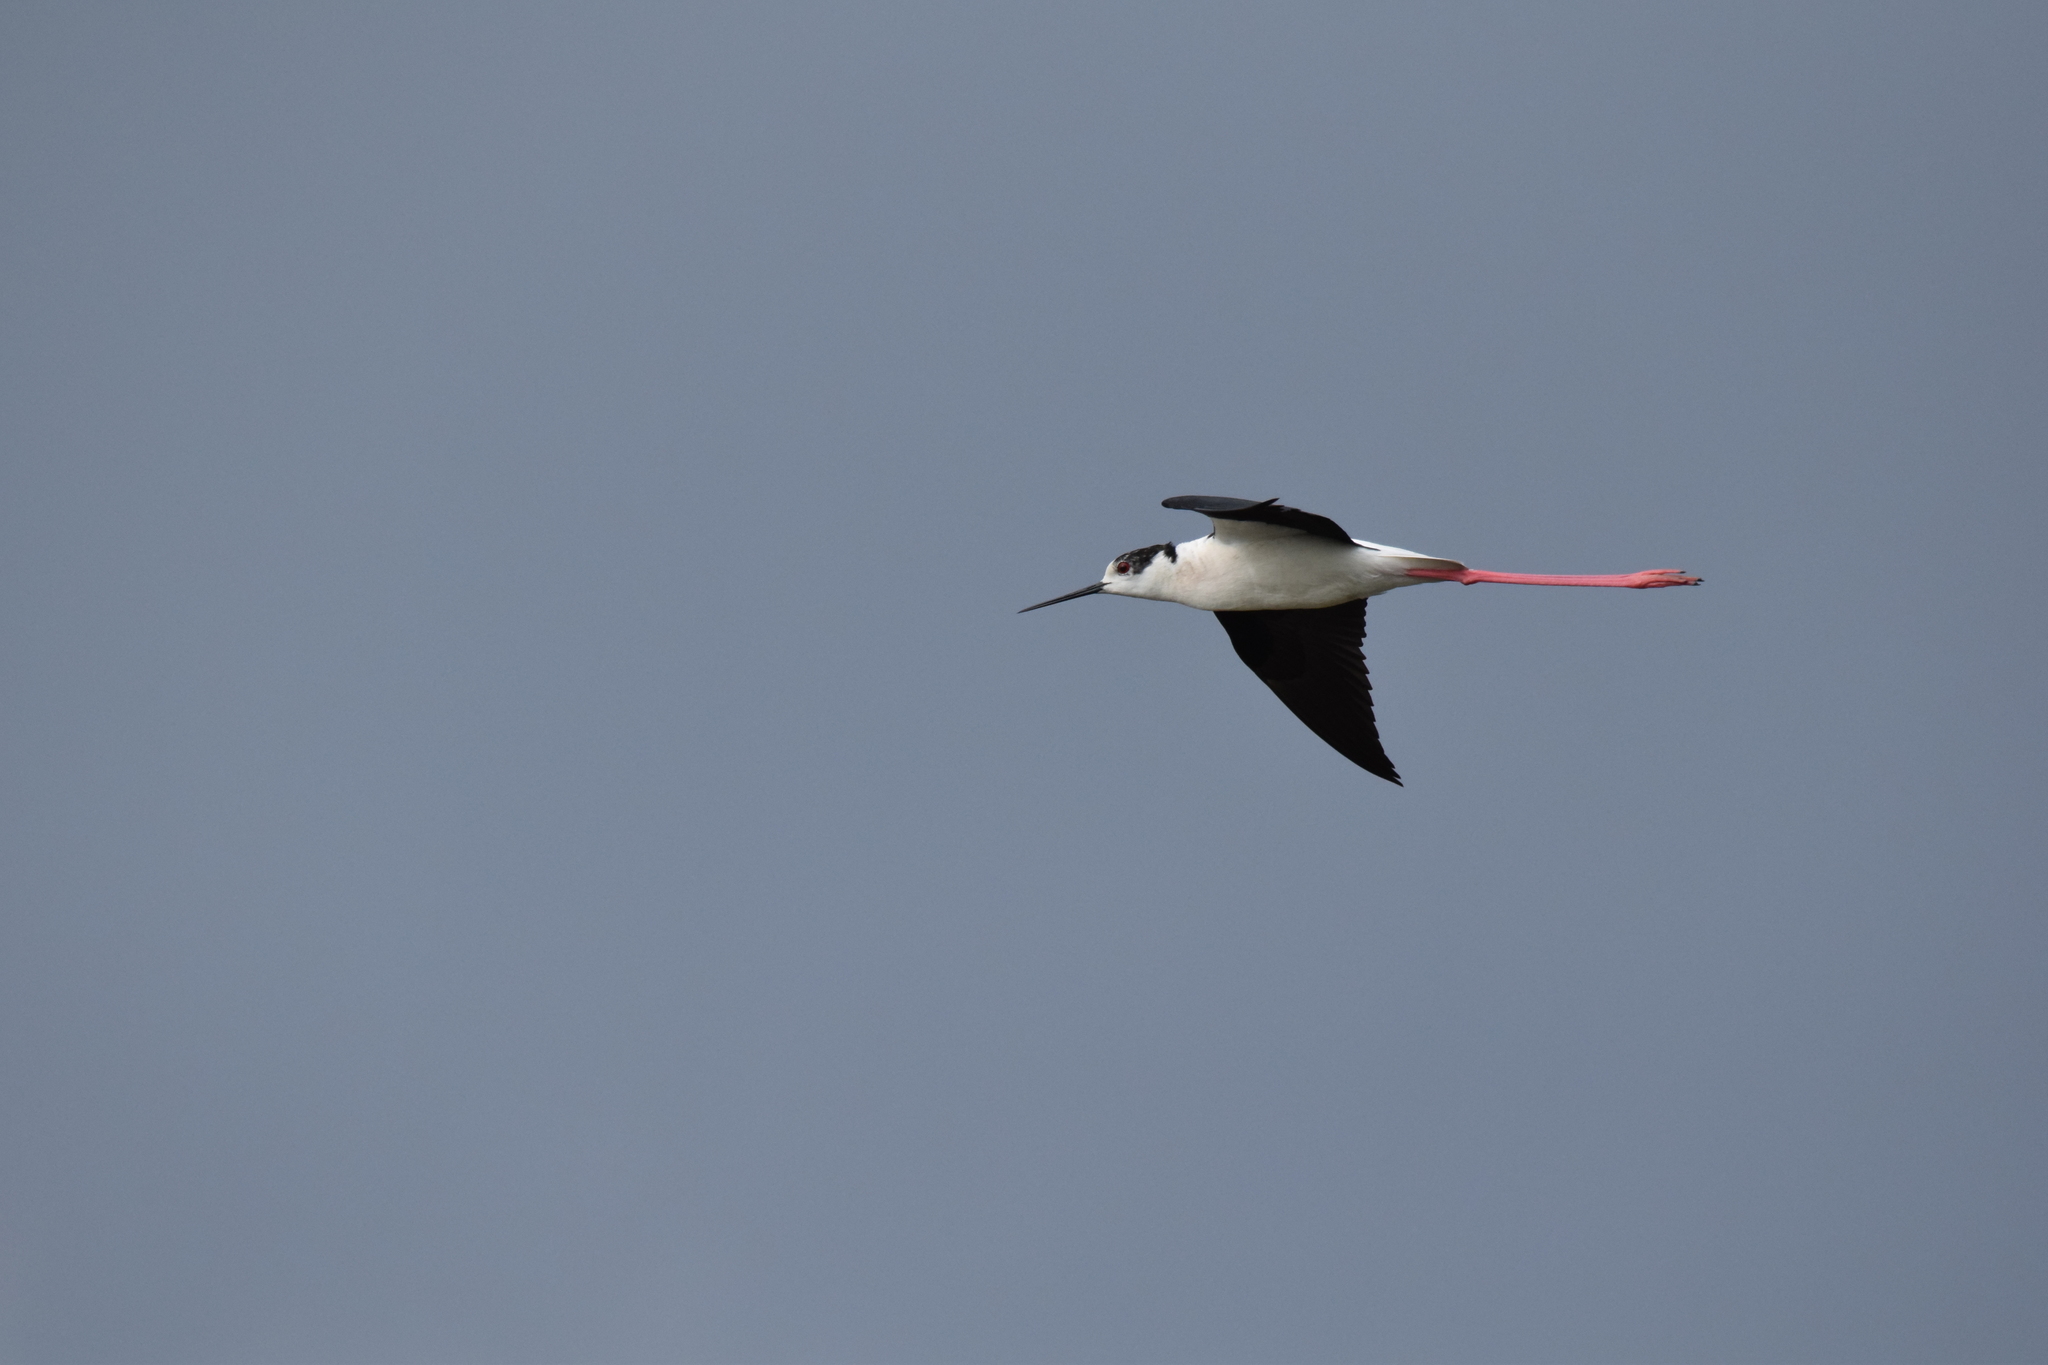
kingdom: Animalia
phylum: Chordata
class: Aves
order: Charadriiformes
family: Recurvirostridae
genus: Himantopus
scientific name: Himantopus himantopus
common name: Black-winged stilt
